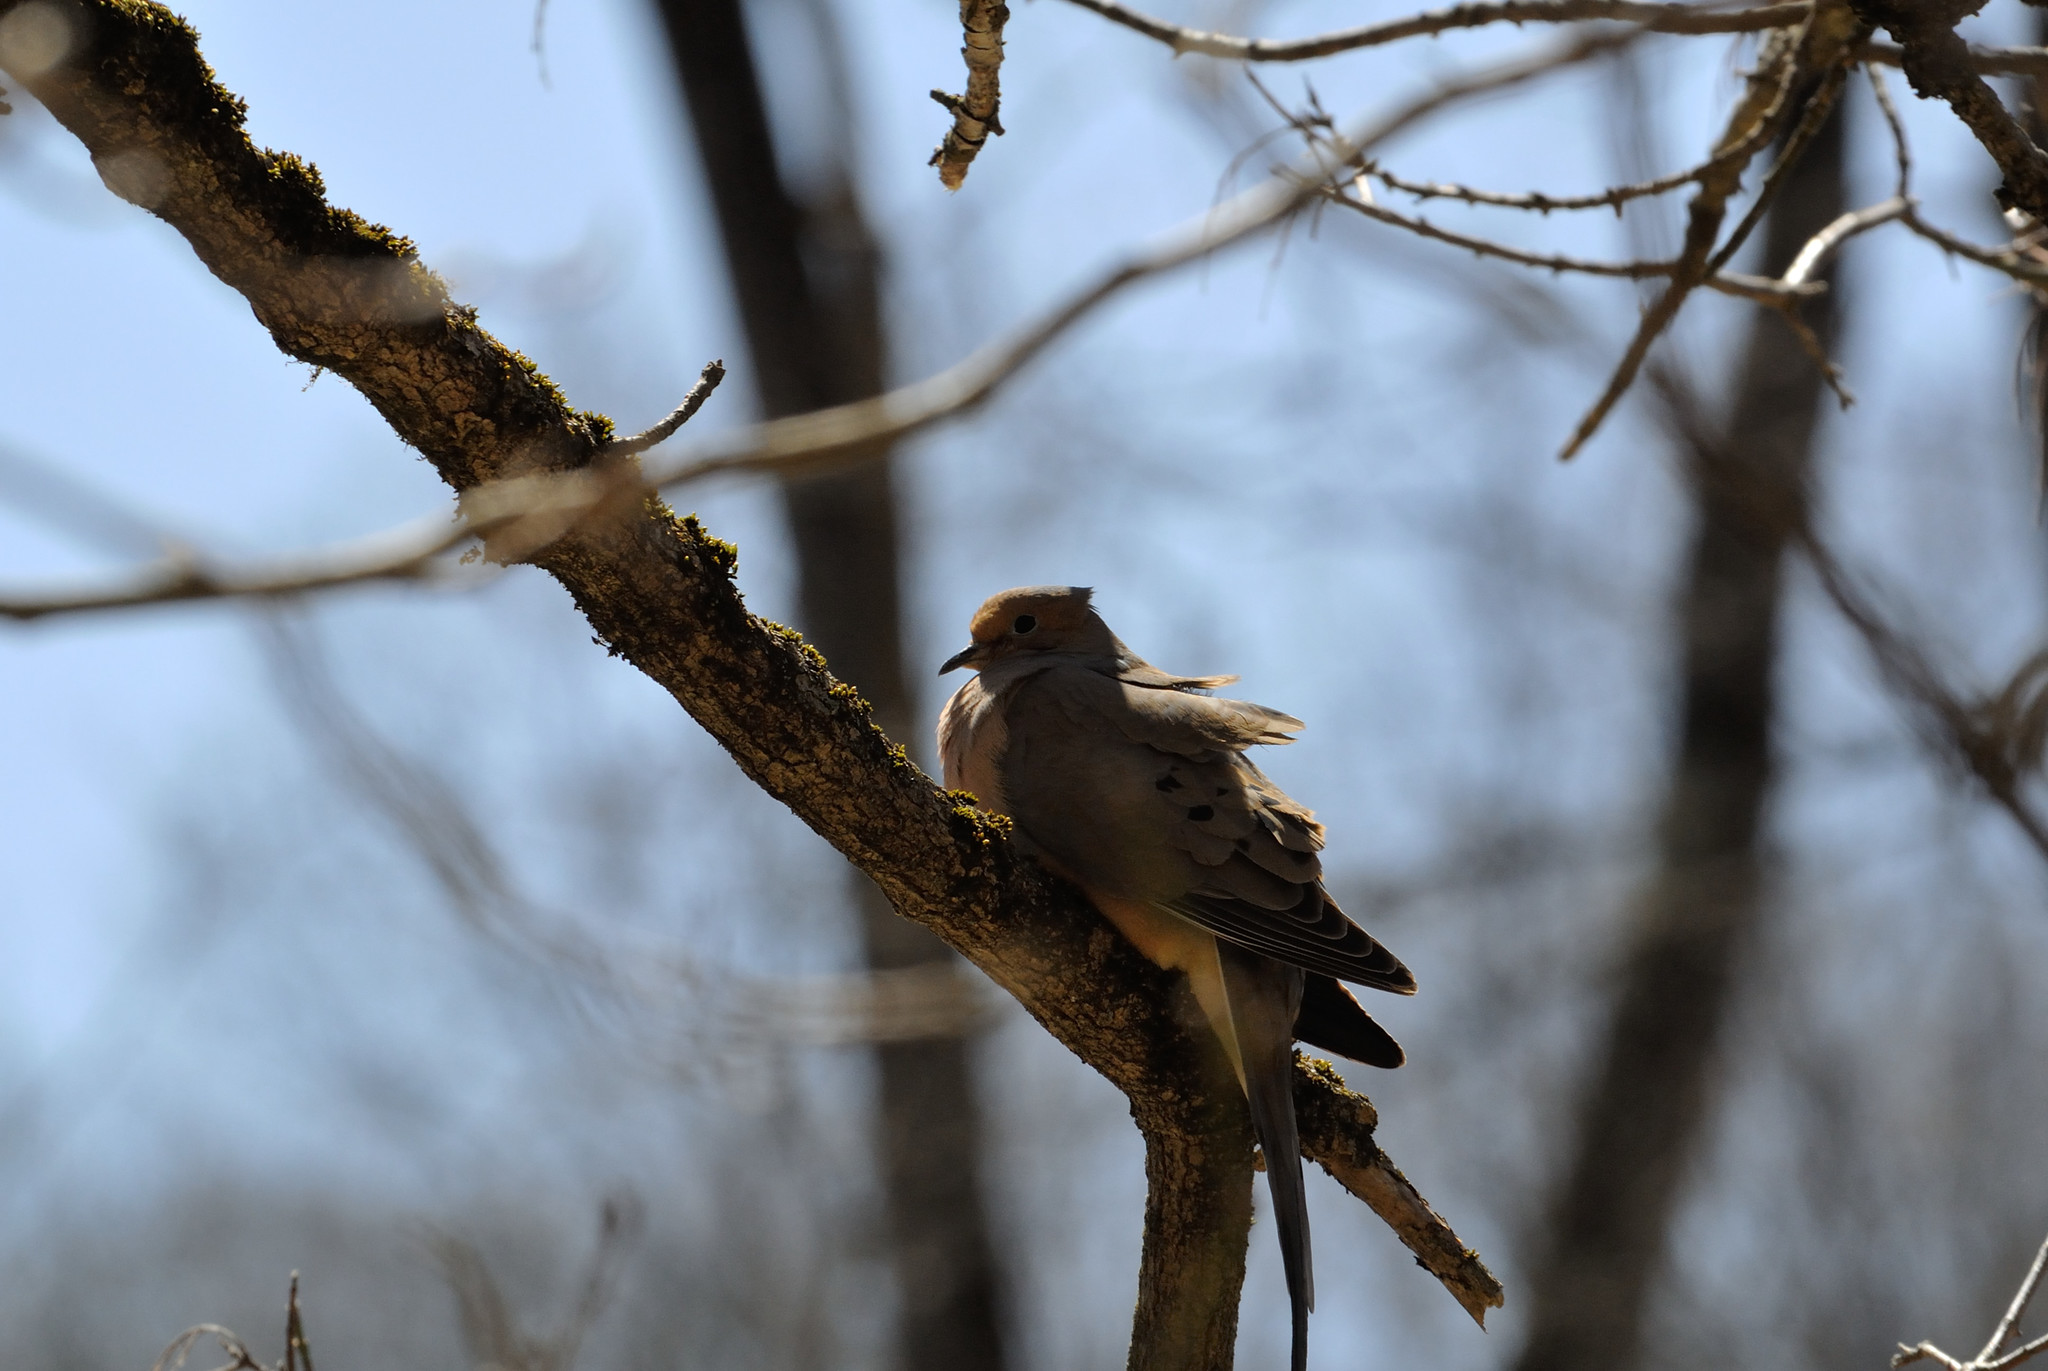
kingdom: Animalia
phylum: Chordata
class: Aves
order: Columbiformes
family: Columbidae
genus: Zenaida
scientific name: Zenaida macroura
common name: Mourning dove
